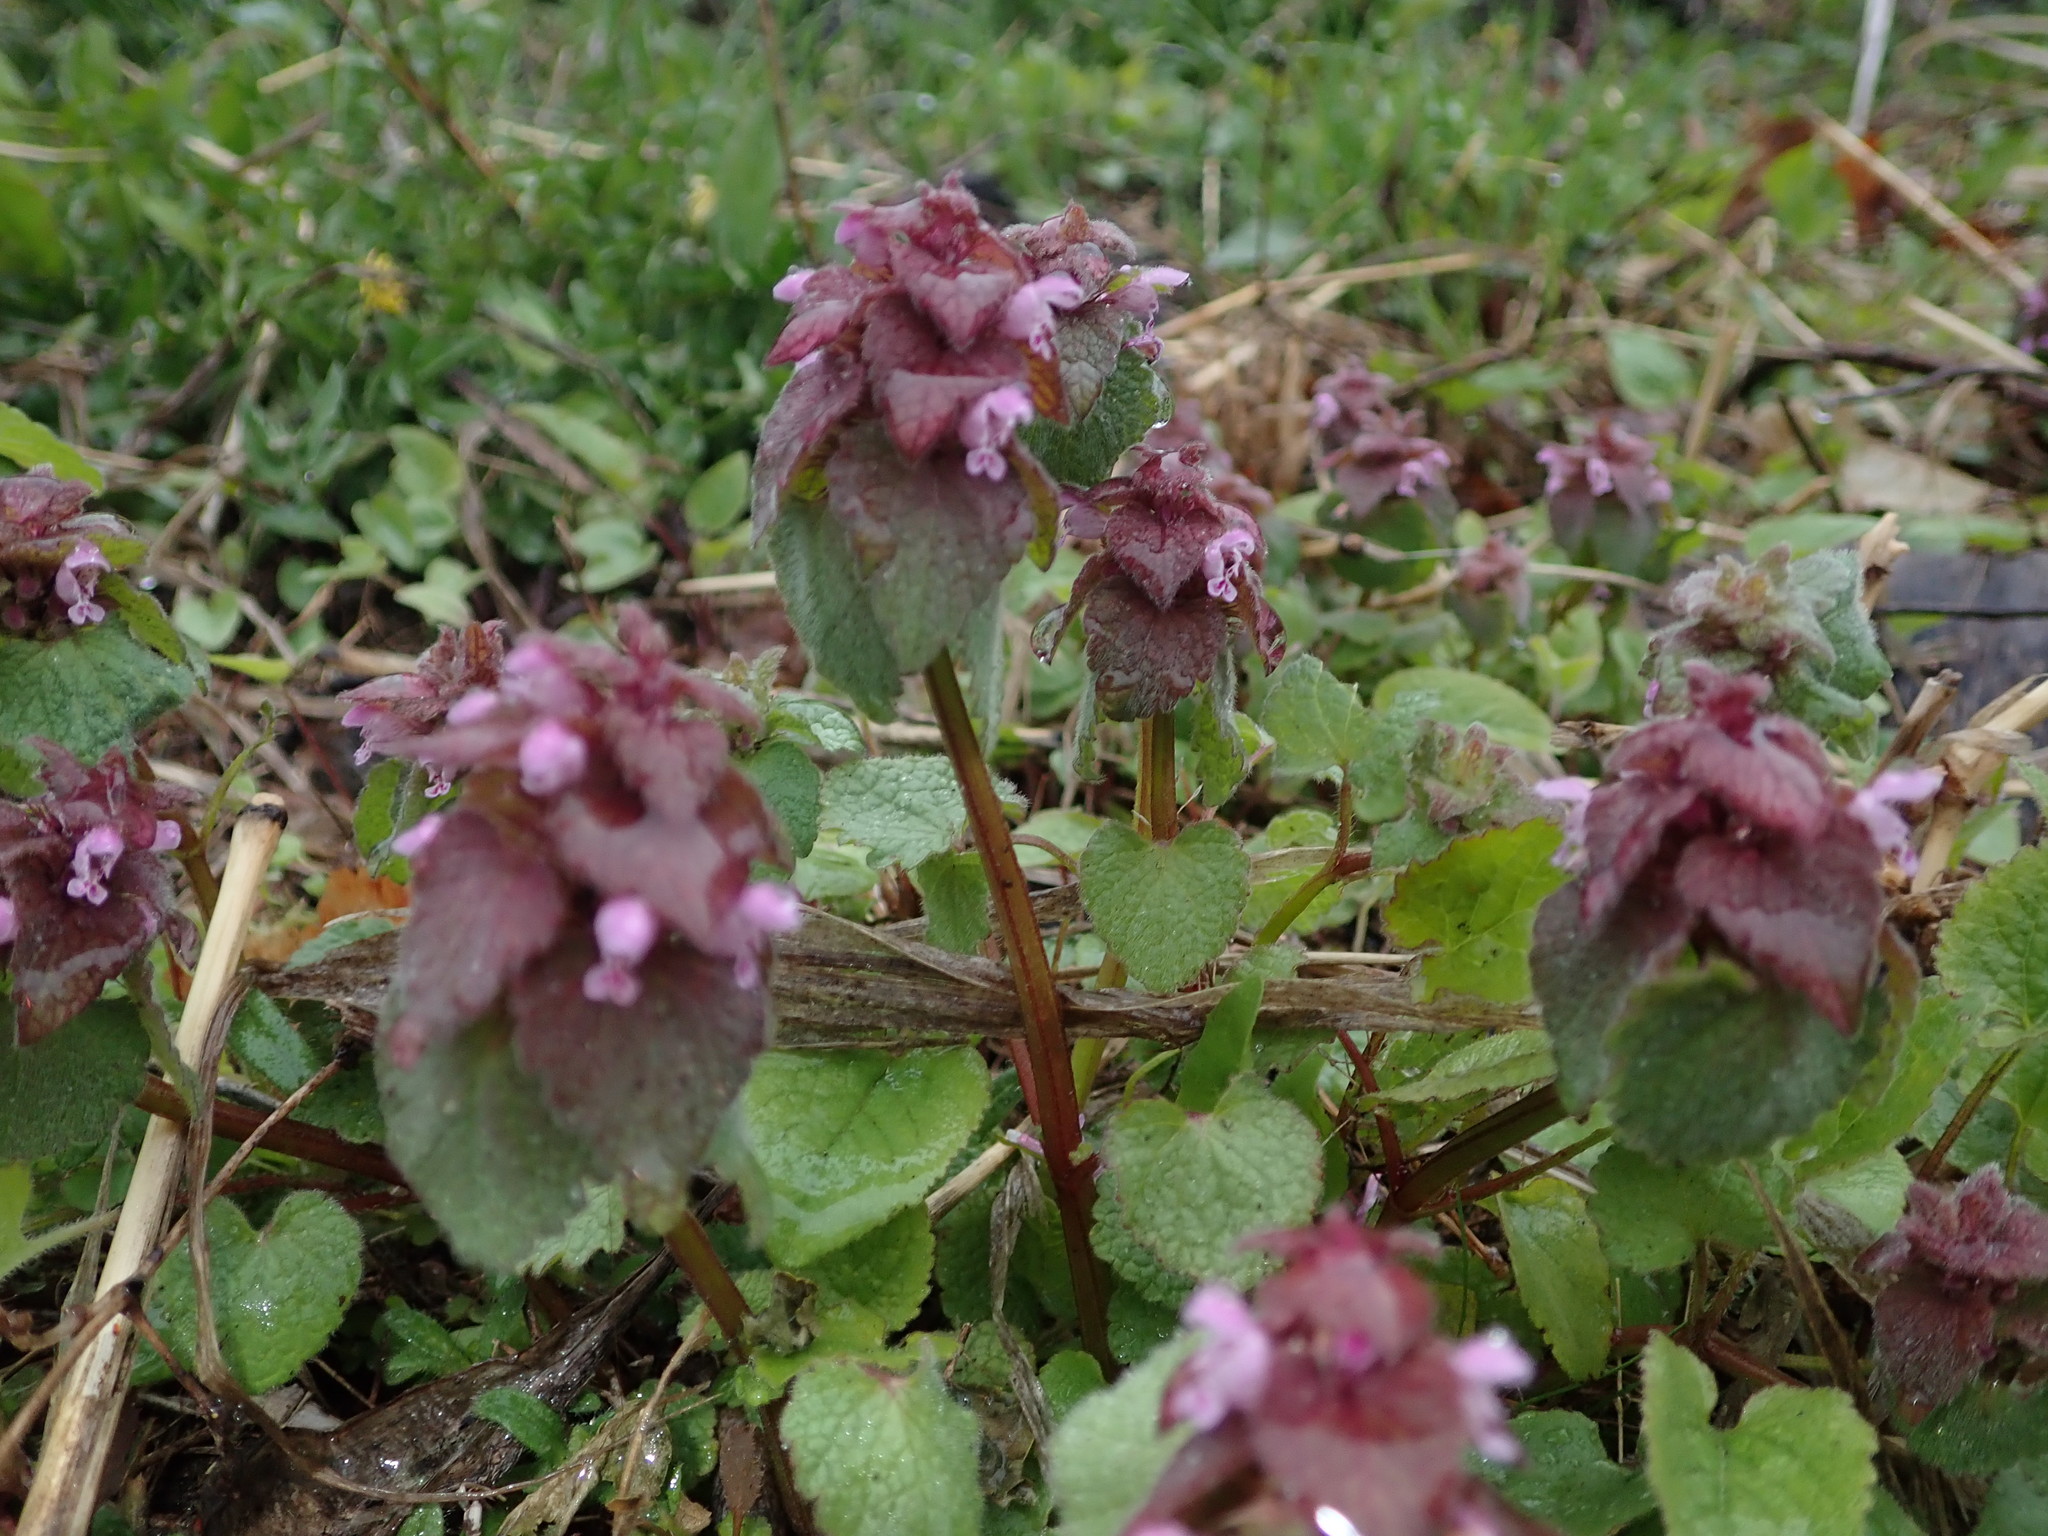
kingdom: Plantae
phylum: Tracheophyta
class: Magnoliopsida
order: Lamiales
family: Lamiaceae
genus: Lamium
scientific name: Lamium purpureum
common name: Red dead-nettle
